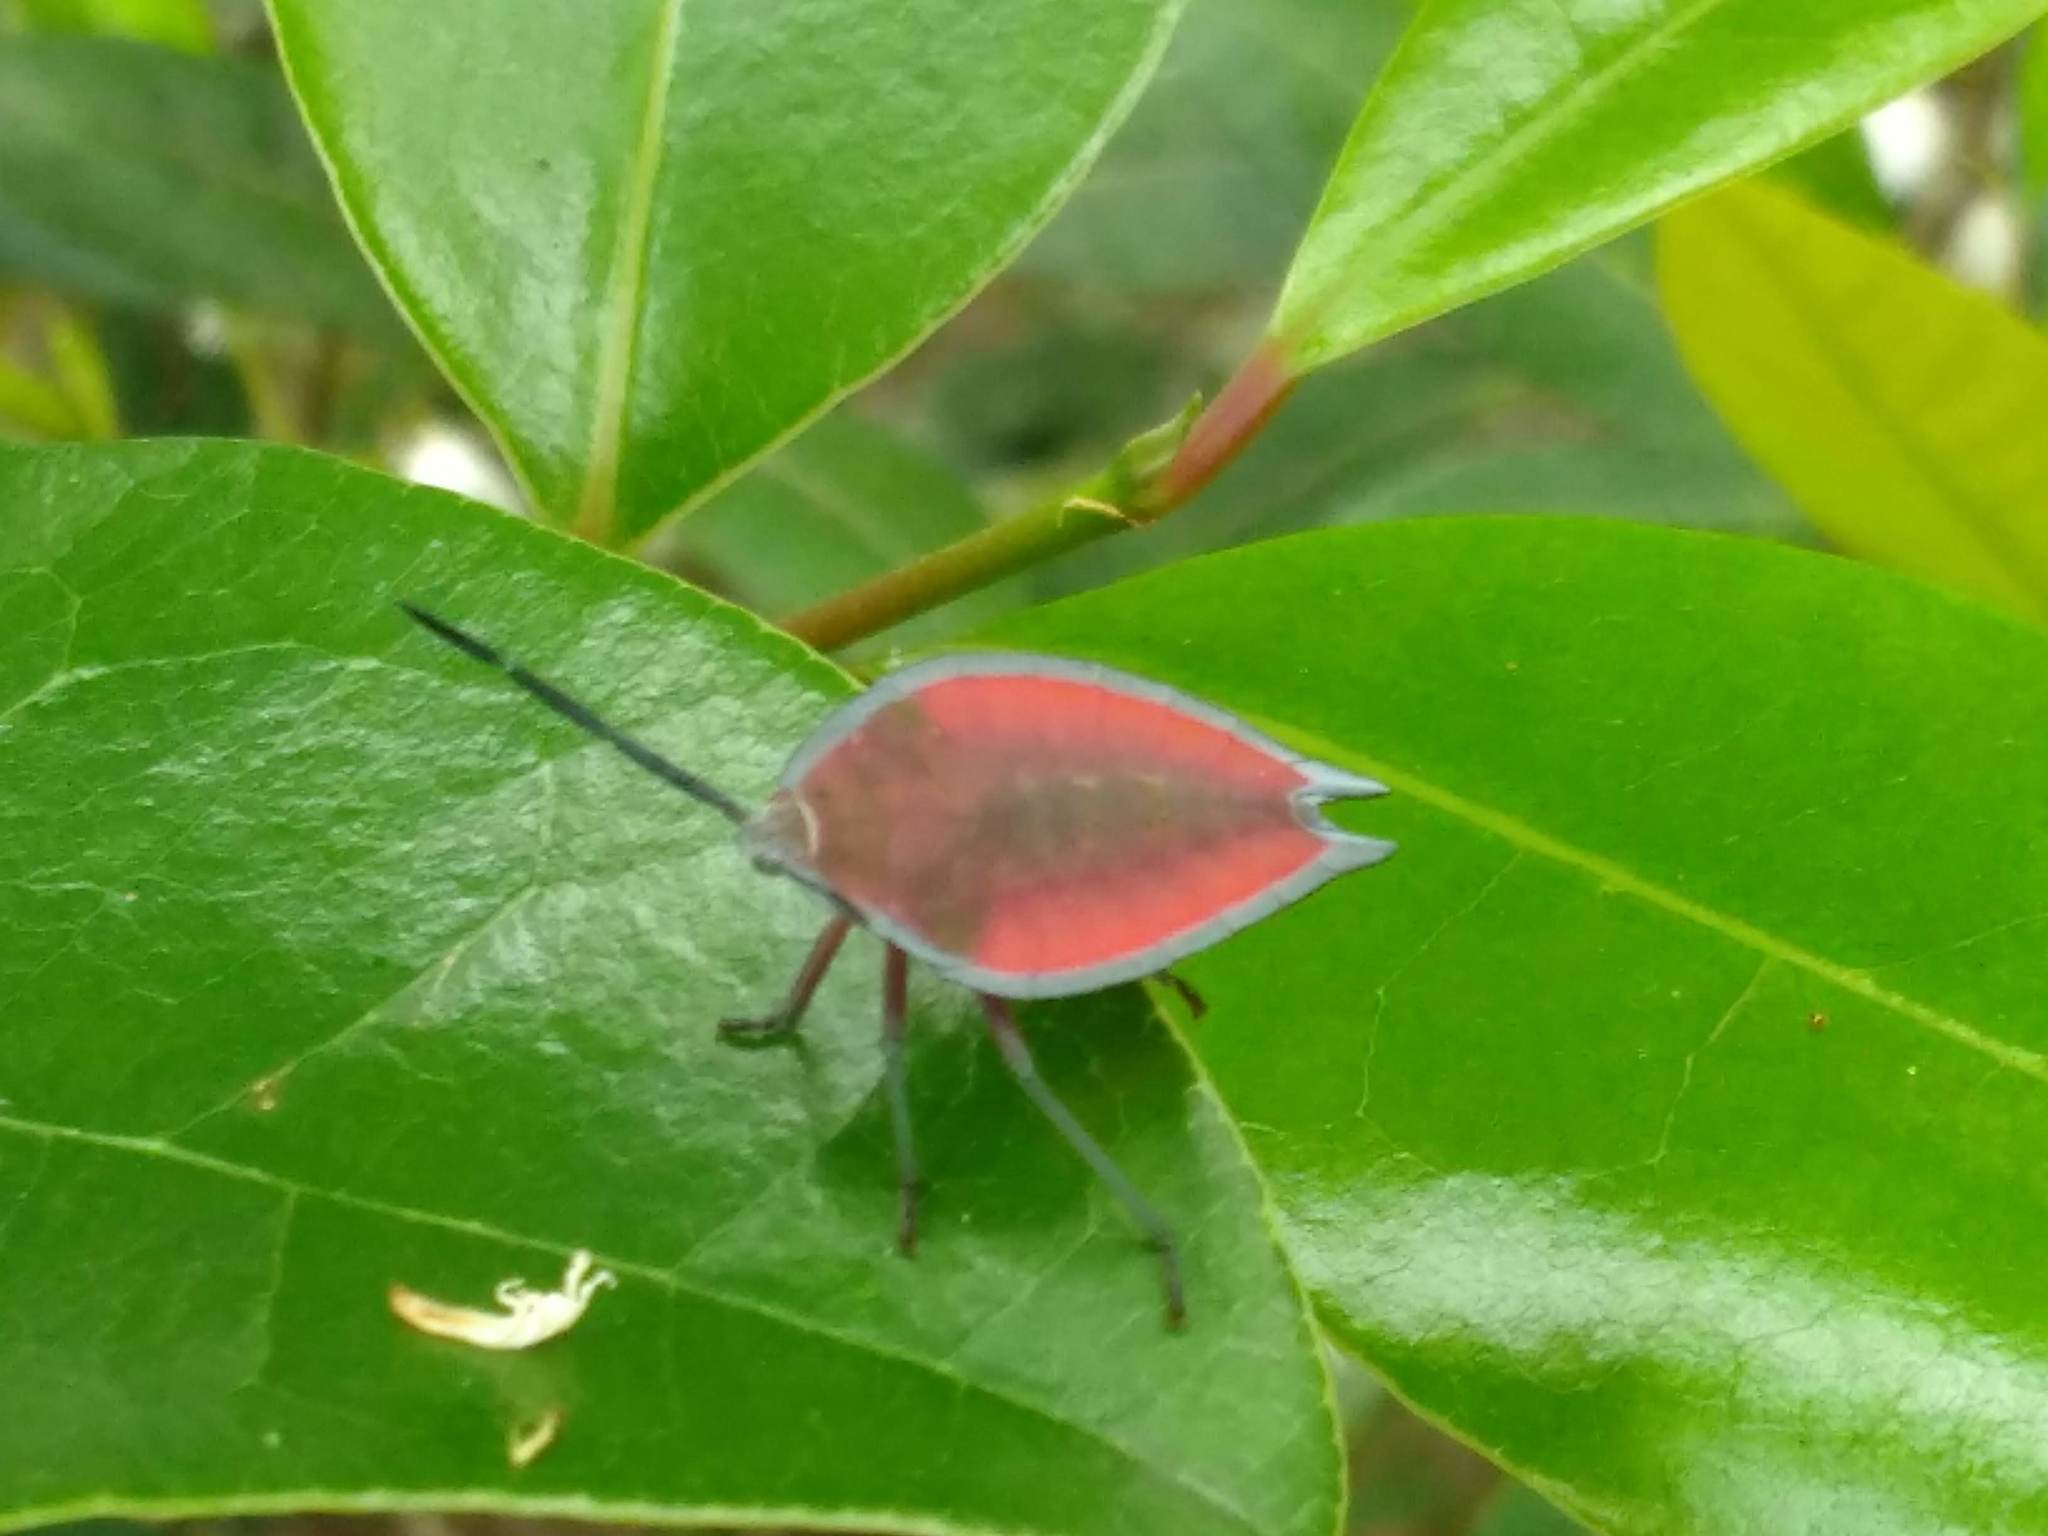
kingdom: Animalia
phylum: Arthropoda
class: Insecta
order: Hemiptera
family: Tessaratomidae
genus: Lyramorpha
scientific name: Lyramorpha rosea
